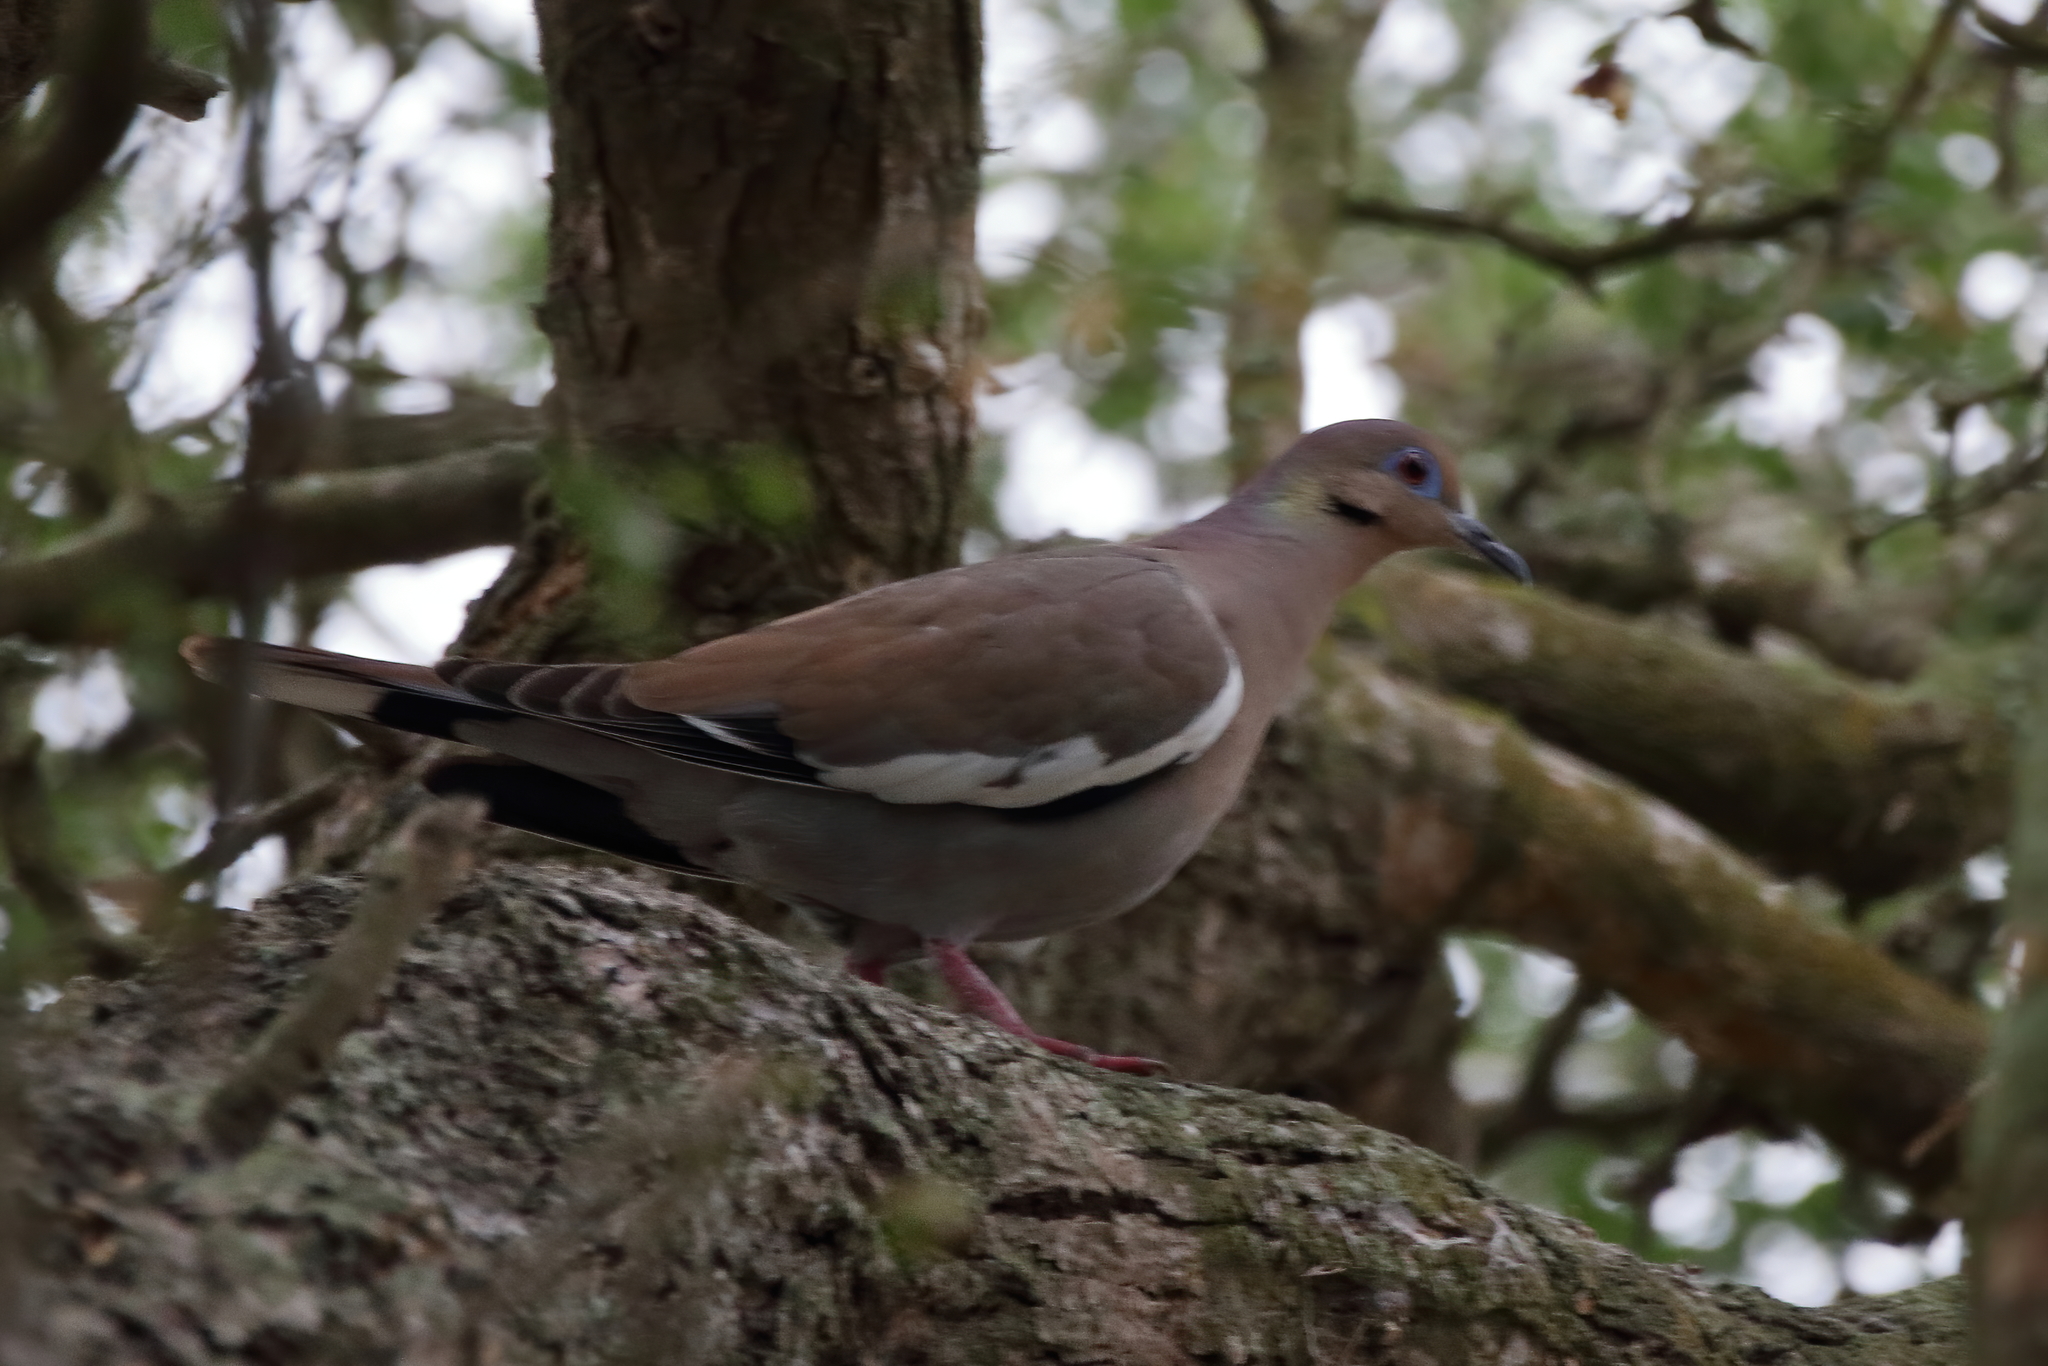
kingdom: Animalia
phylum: Chordata
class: Aves
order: Columbiformes
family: Columbidae
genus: Zenaida
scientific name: Zenaida asiatica
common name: White-winged dove
